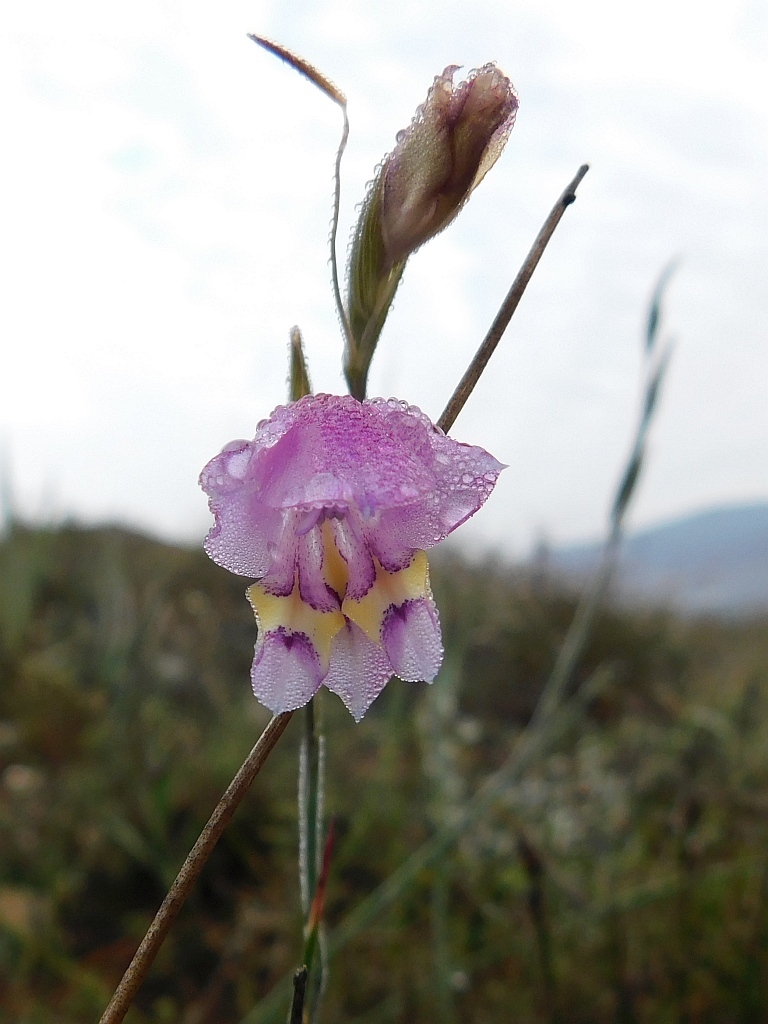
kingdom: Plantae
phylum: Tracheophyta
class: Liliopsida
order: Asparagales
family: Iridaceae
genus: Gladiolus
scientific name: Gladiolus rogersii
